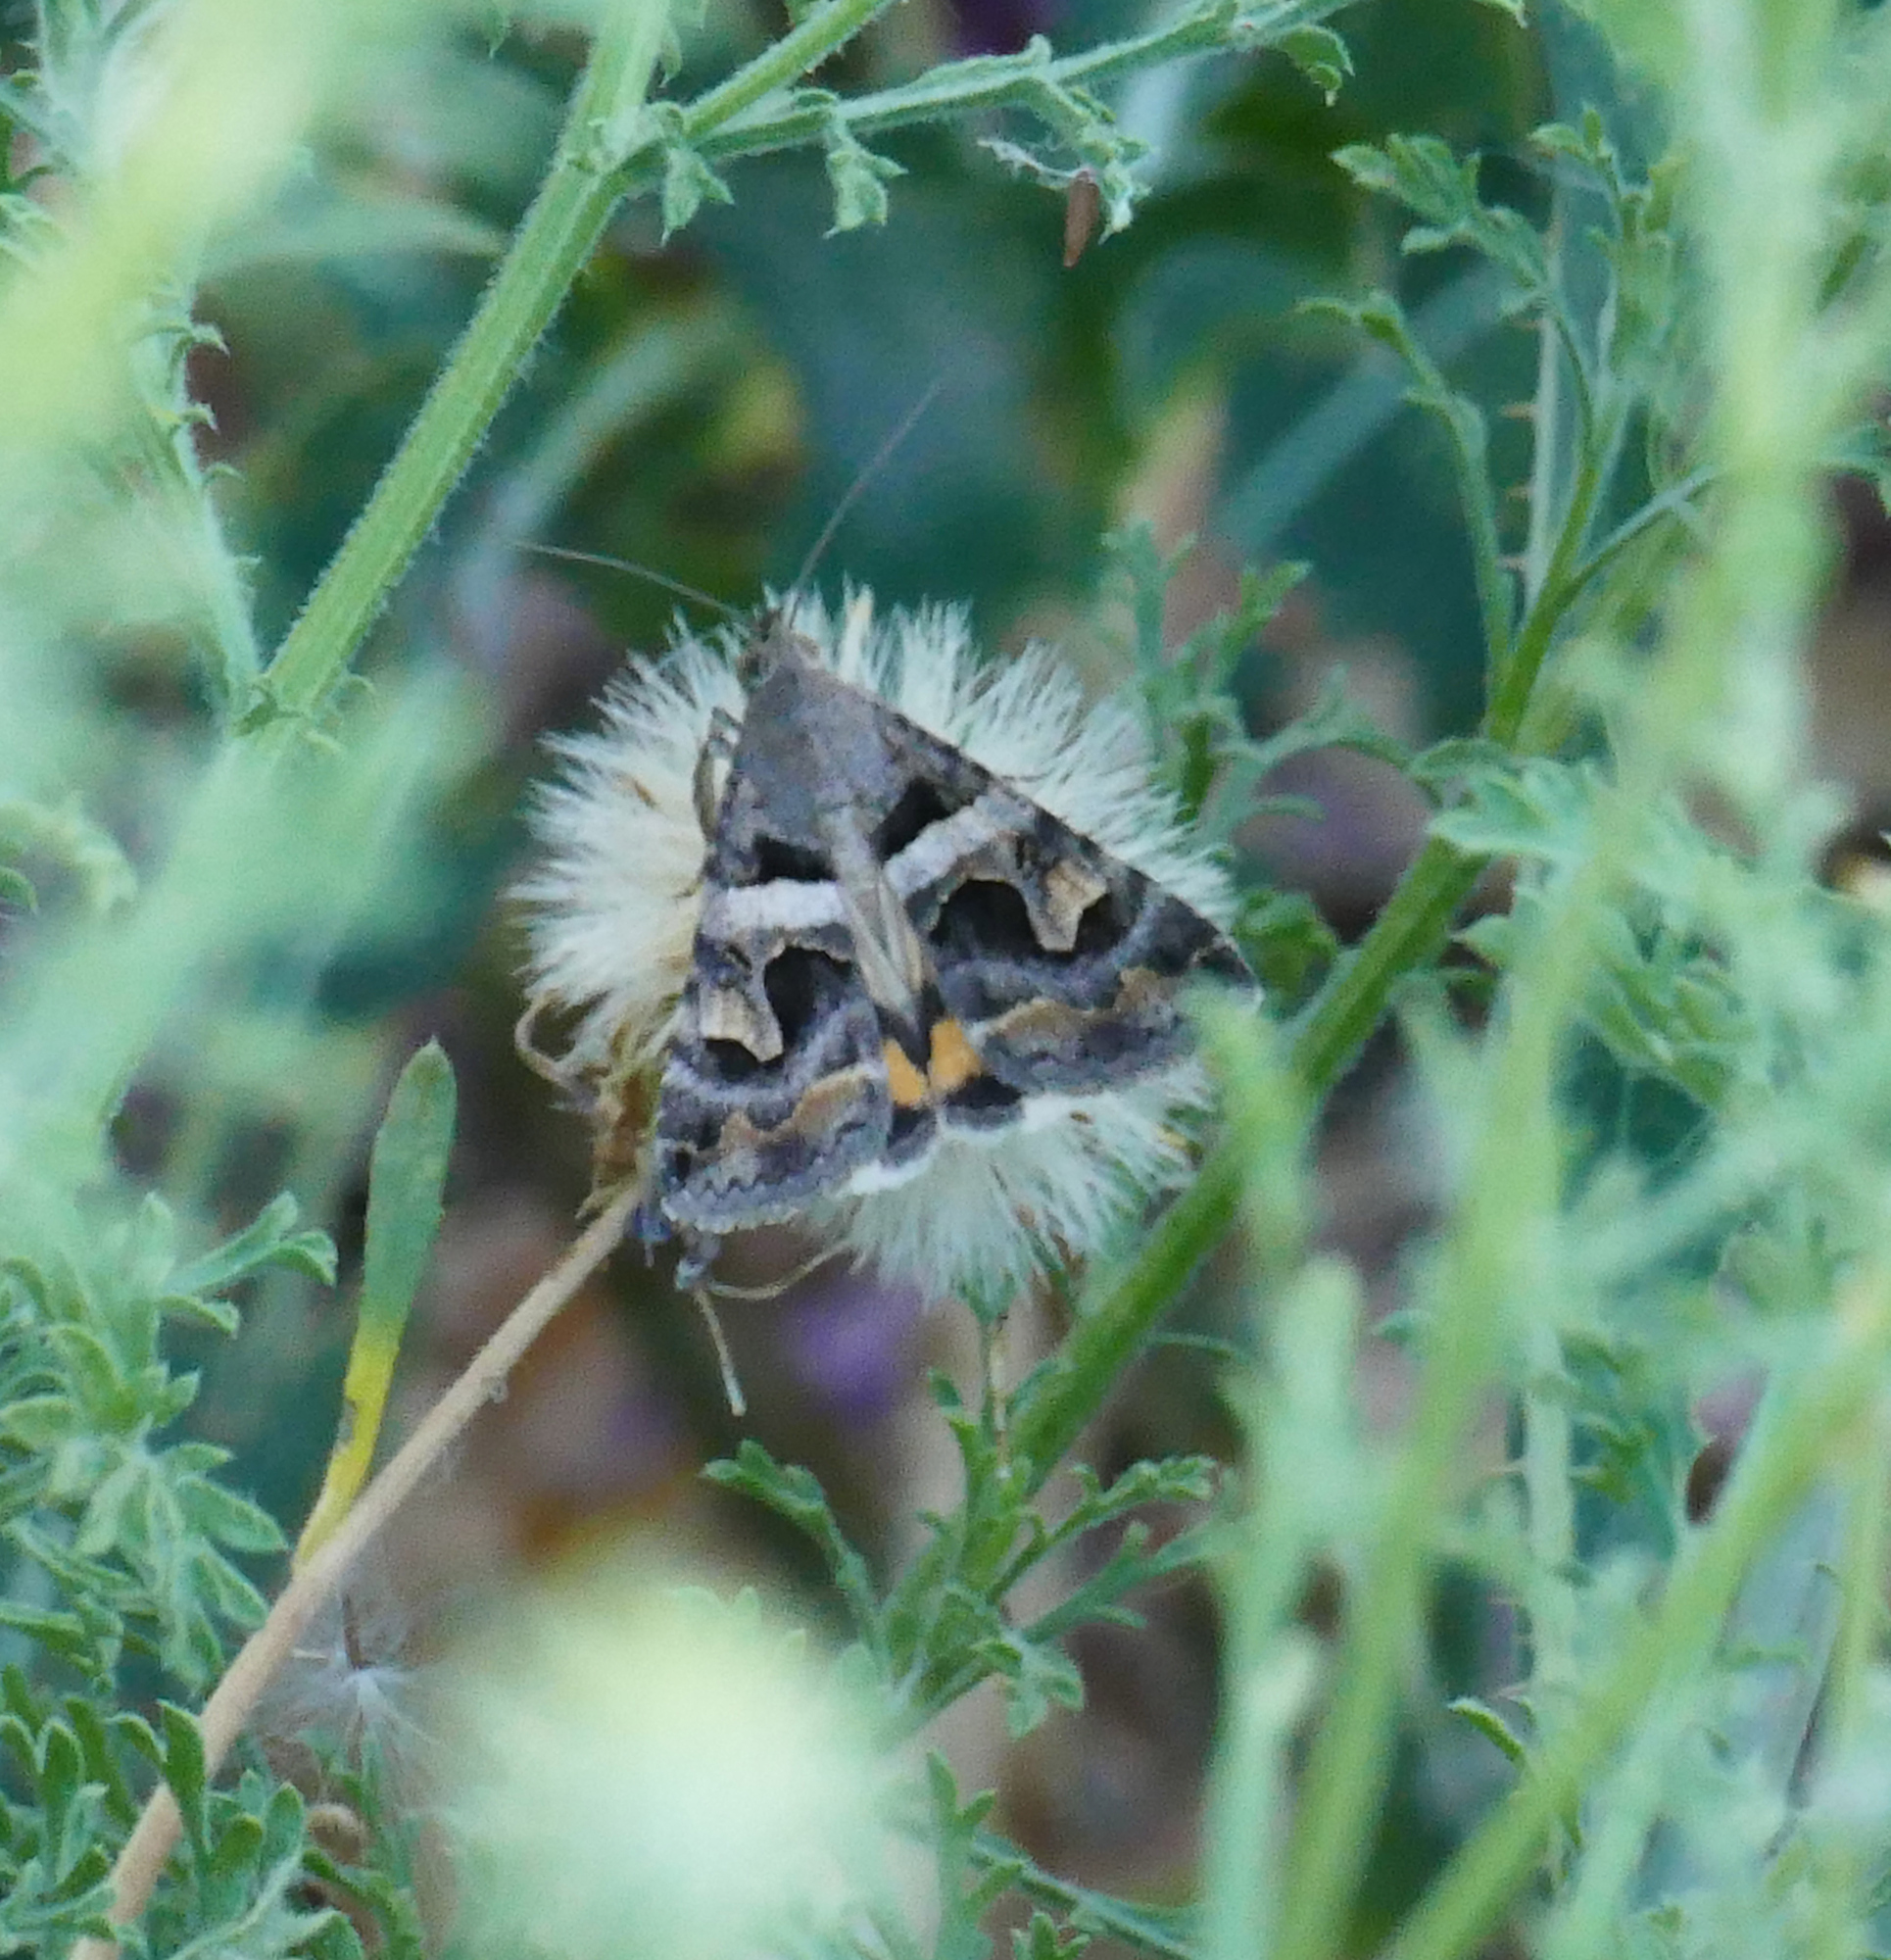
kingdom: Animalia
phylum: Arthropoda
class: Insecta
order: Lepidoptera
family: Erebidae
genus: Bulia
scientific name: Bulia deducta
